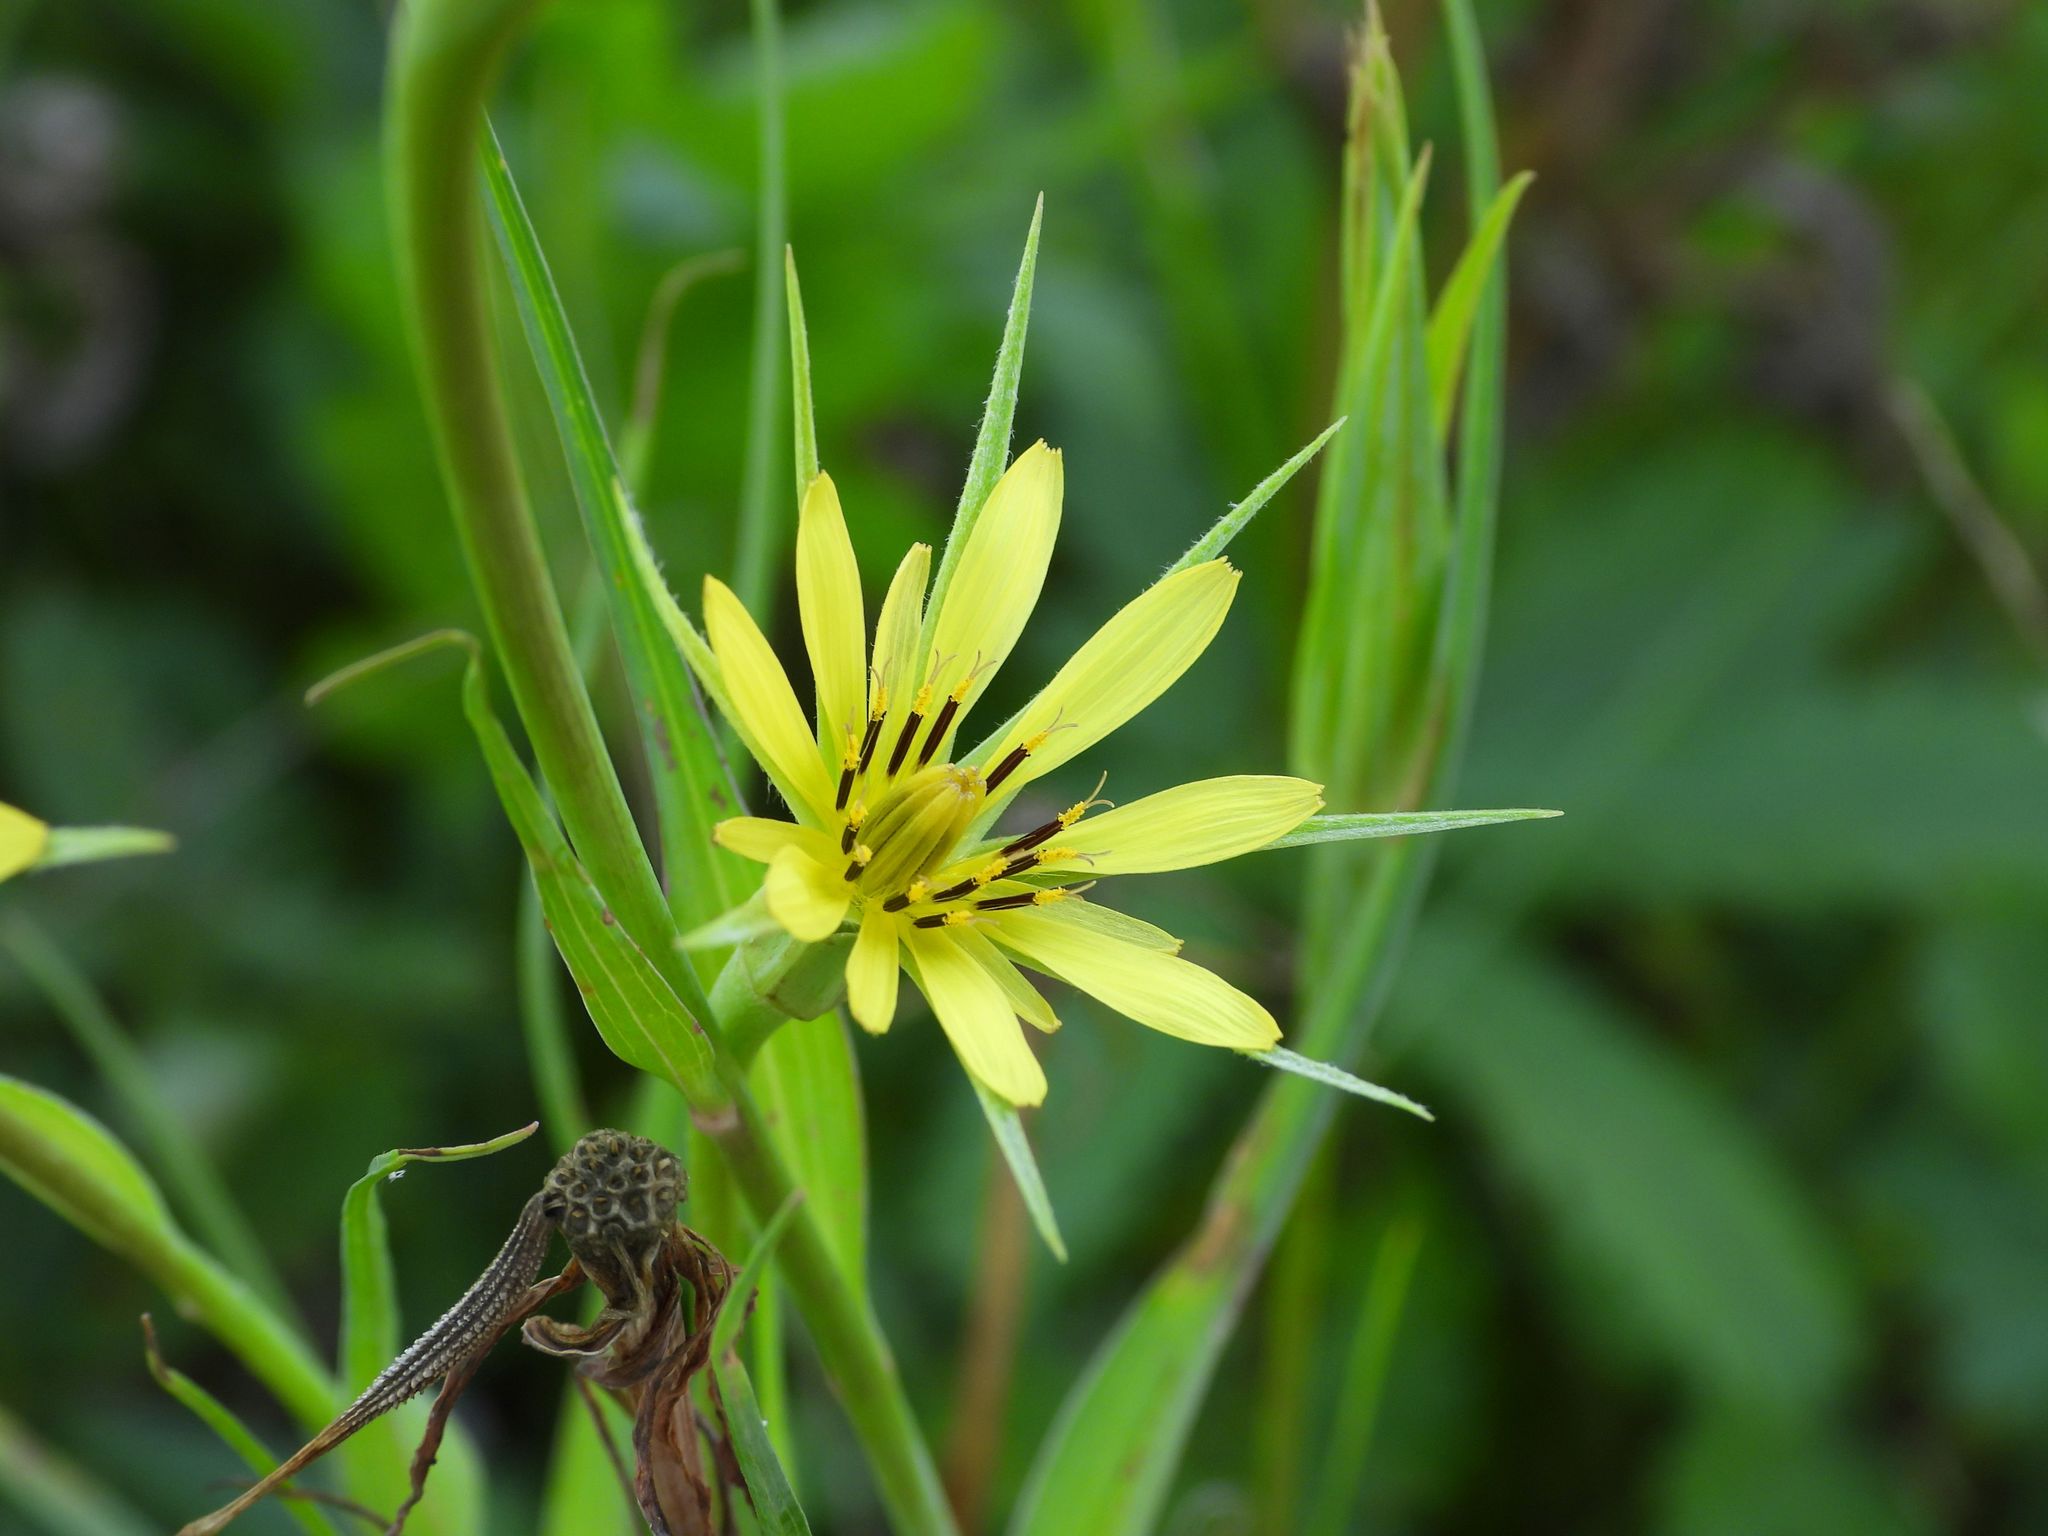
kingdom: Plantae
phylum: Tracheophyta
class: Magnoliopsida
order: Asterales
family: Asteraceae
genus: Tragopogon
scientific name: Tragopogon dubius
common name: Yellow salsify
